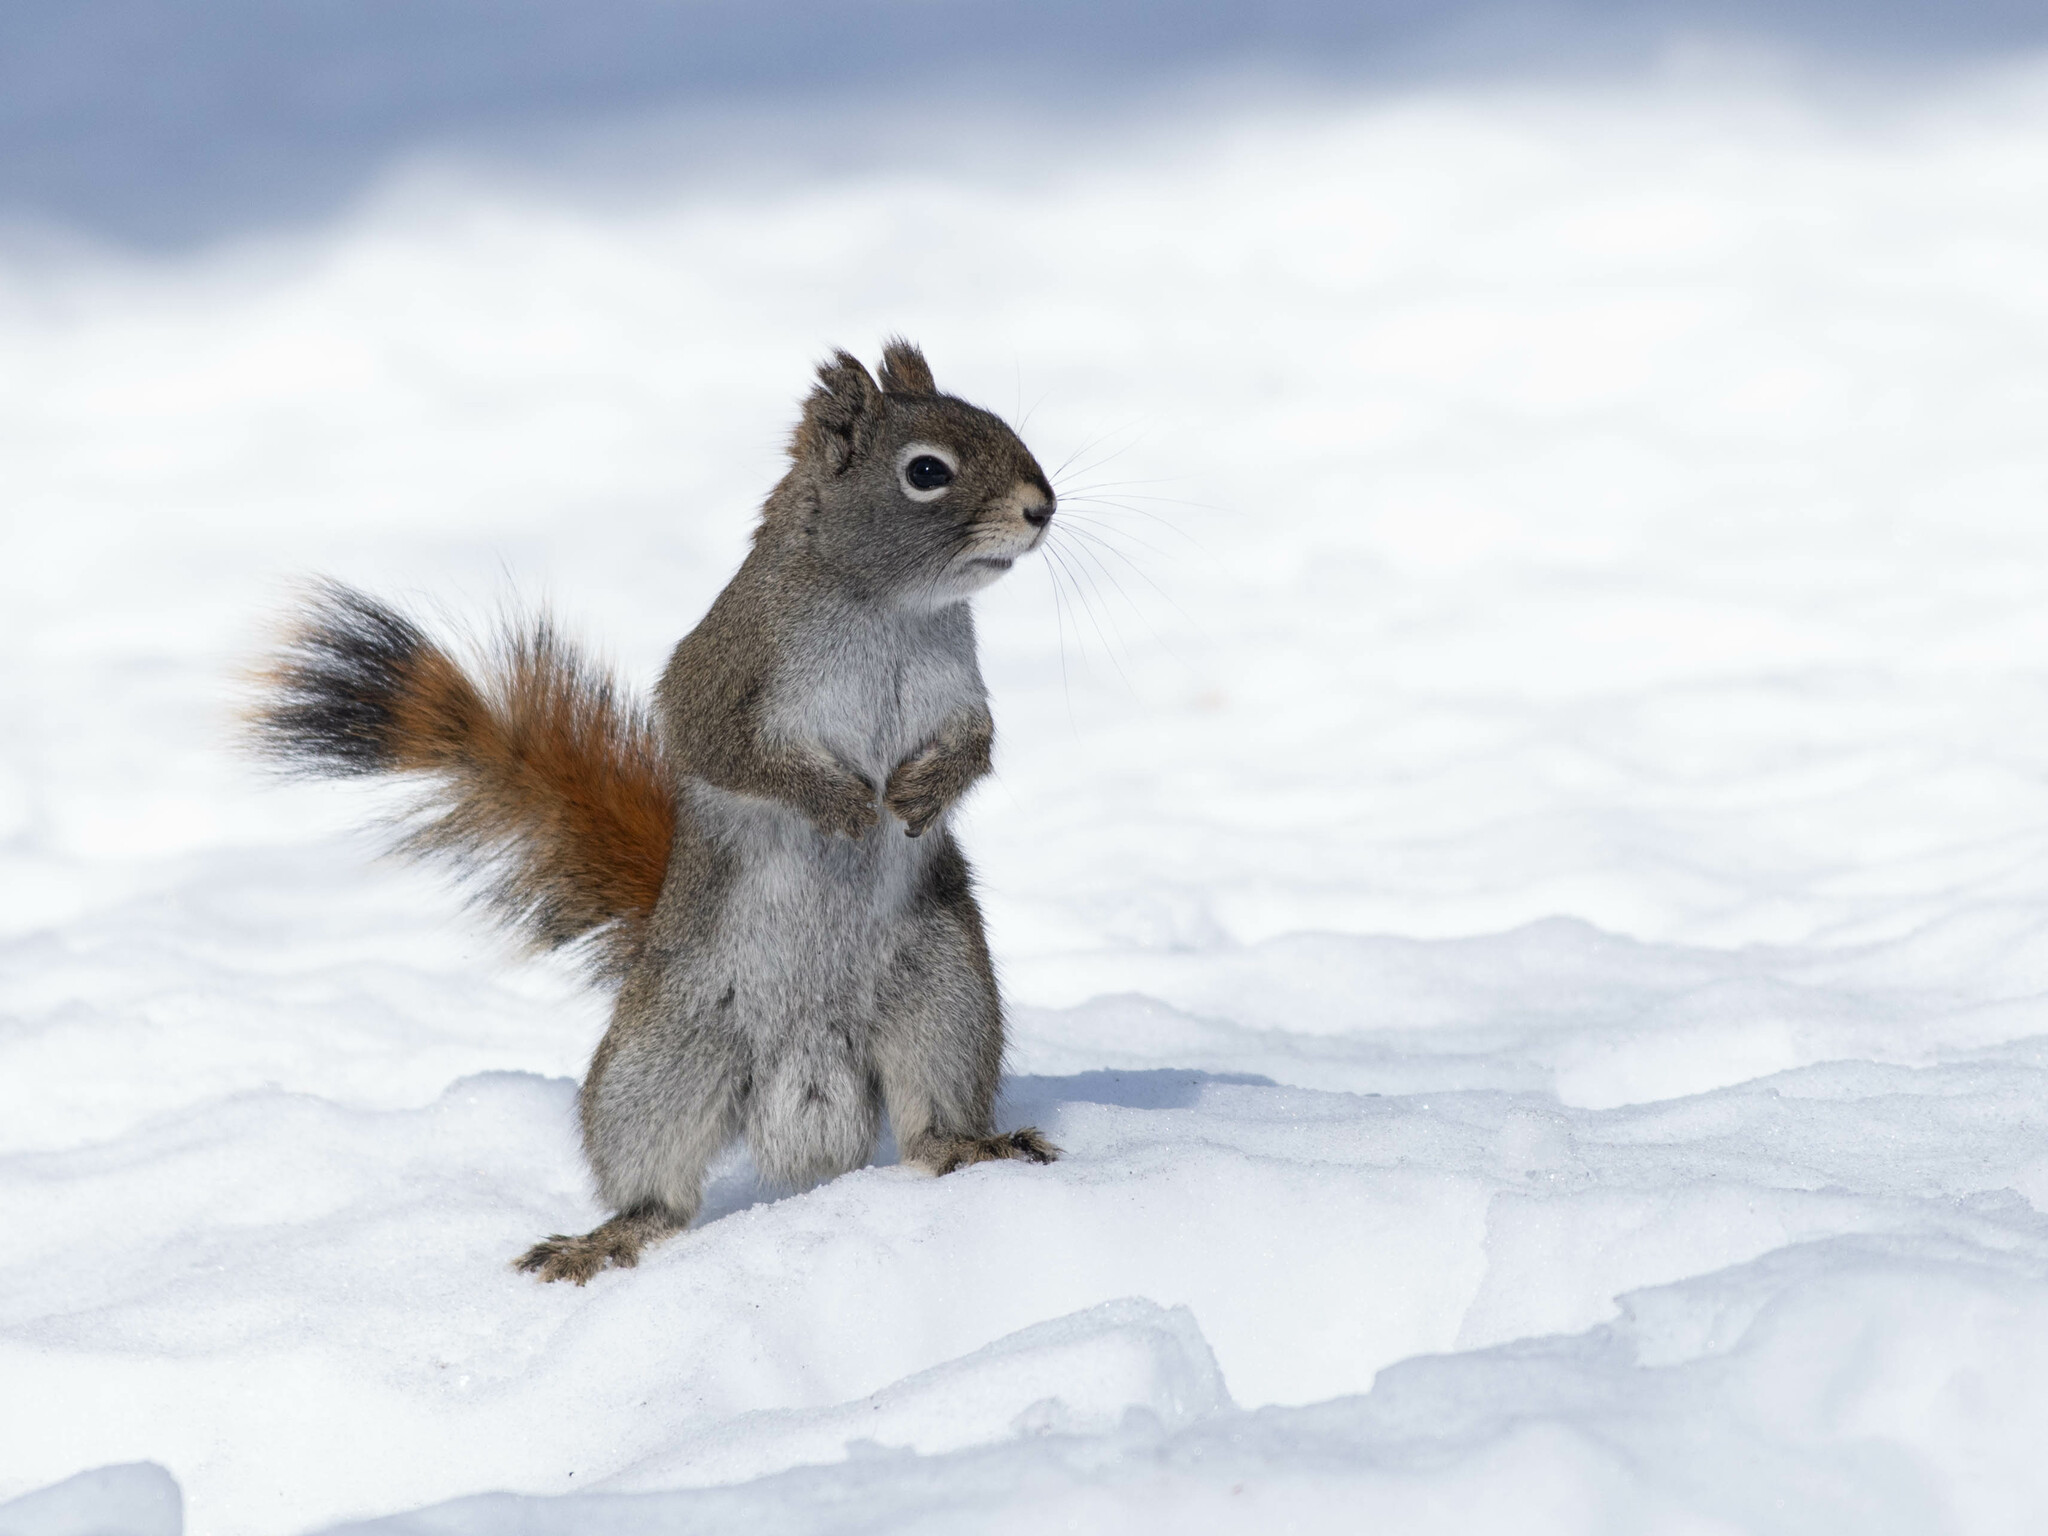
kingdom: Animalia
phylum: Chordata
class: Mammalia
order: Rodentia
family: Sciuridae
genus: Tamiasciurus
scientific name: Tamiasciurus hudsonicus
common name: Red squirrel
